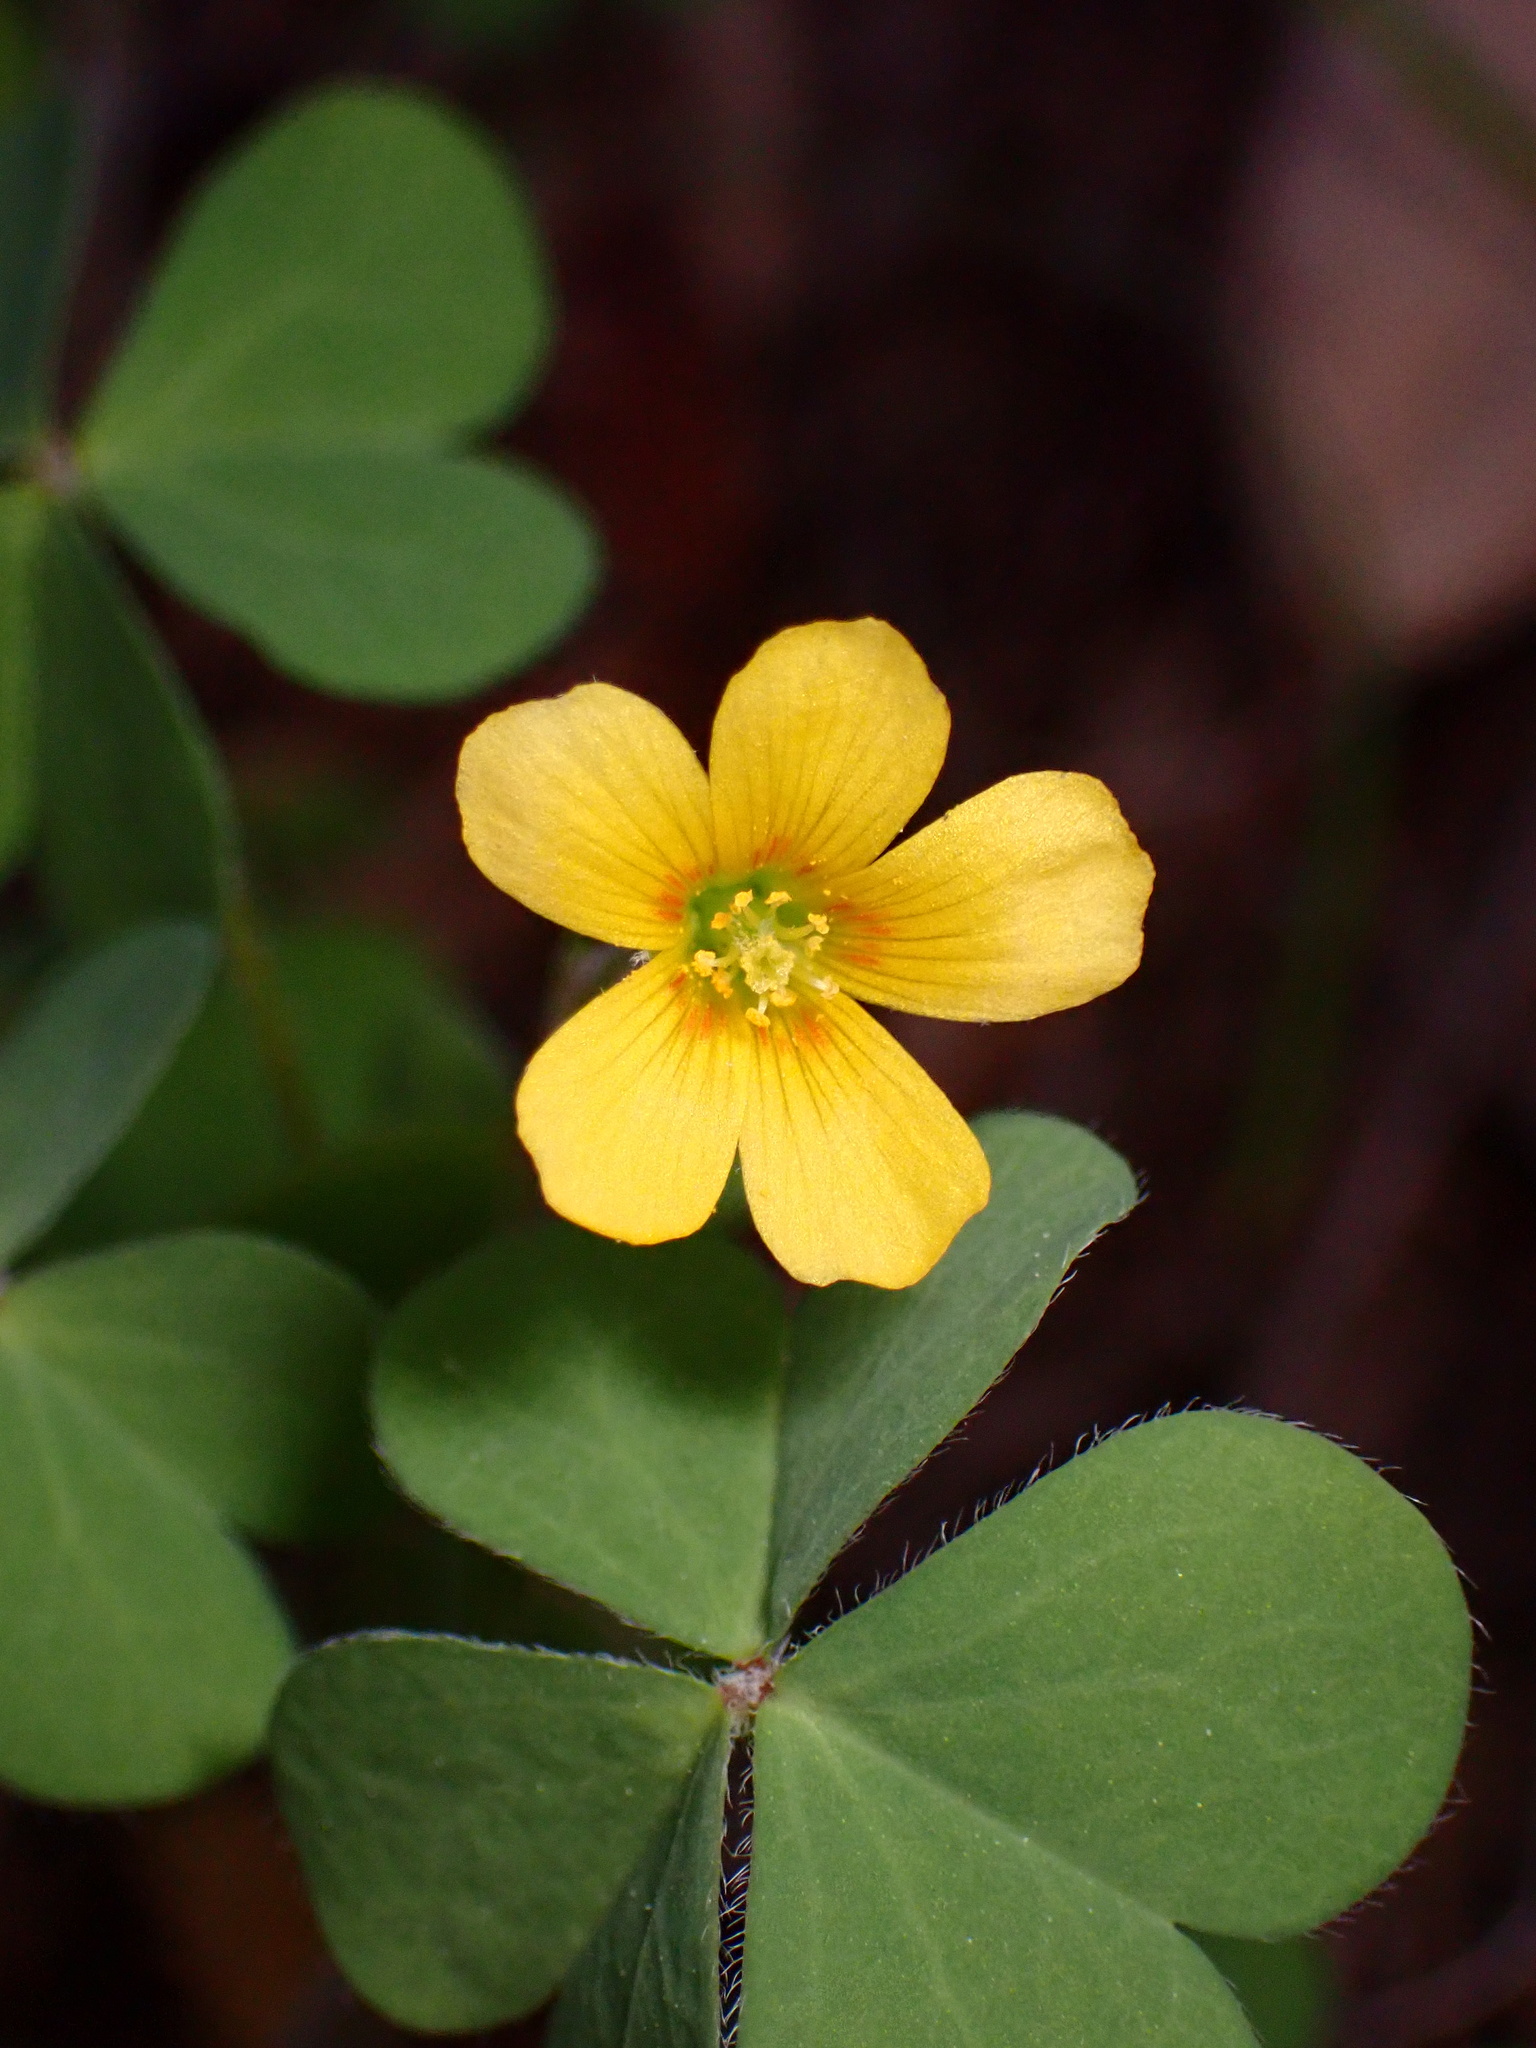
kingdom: Plantae
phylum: Tracheophyta
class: Magnoliopsida
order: Oxalidales
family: Oxalidaceae
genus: Oxalis
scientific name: Oxalis corniculata
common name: Procumbent yellow-sorrel
